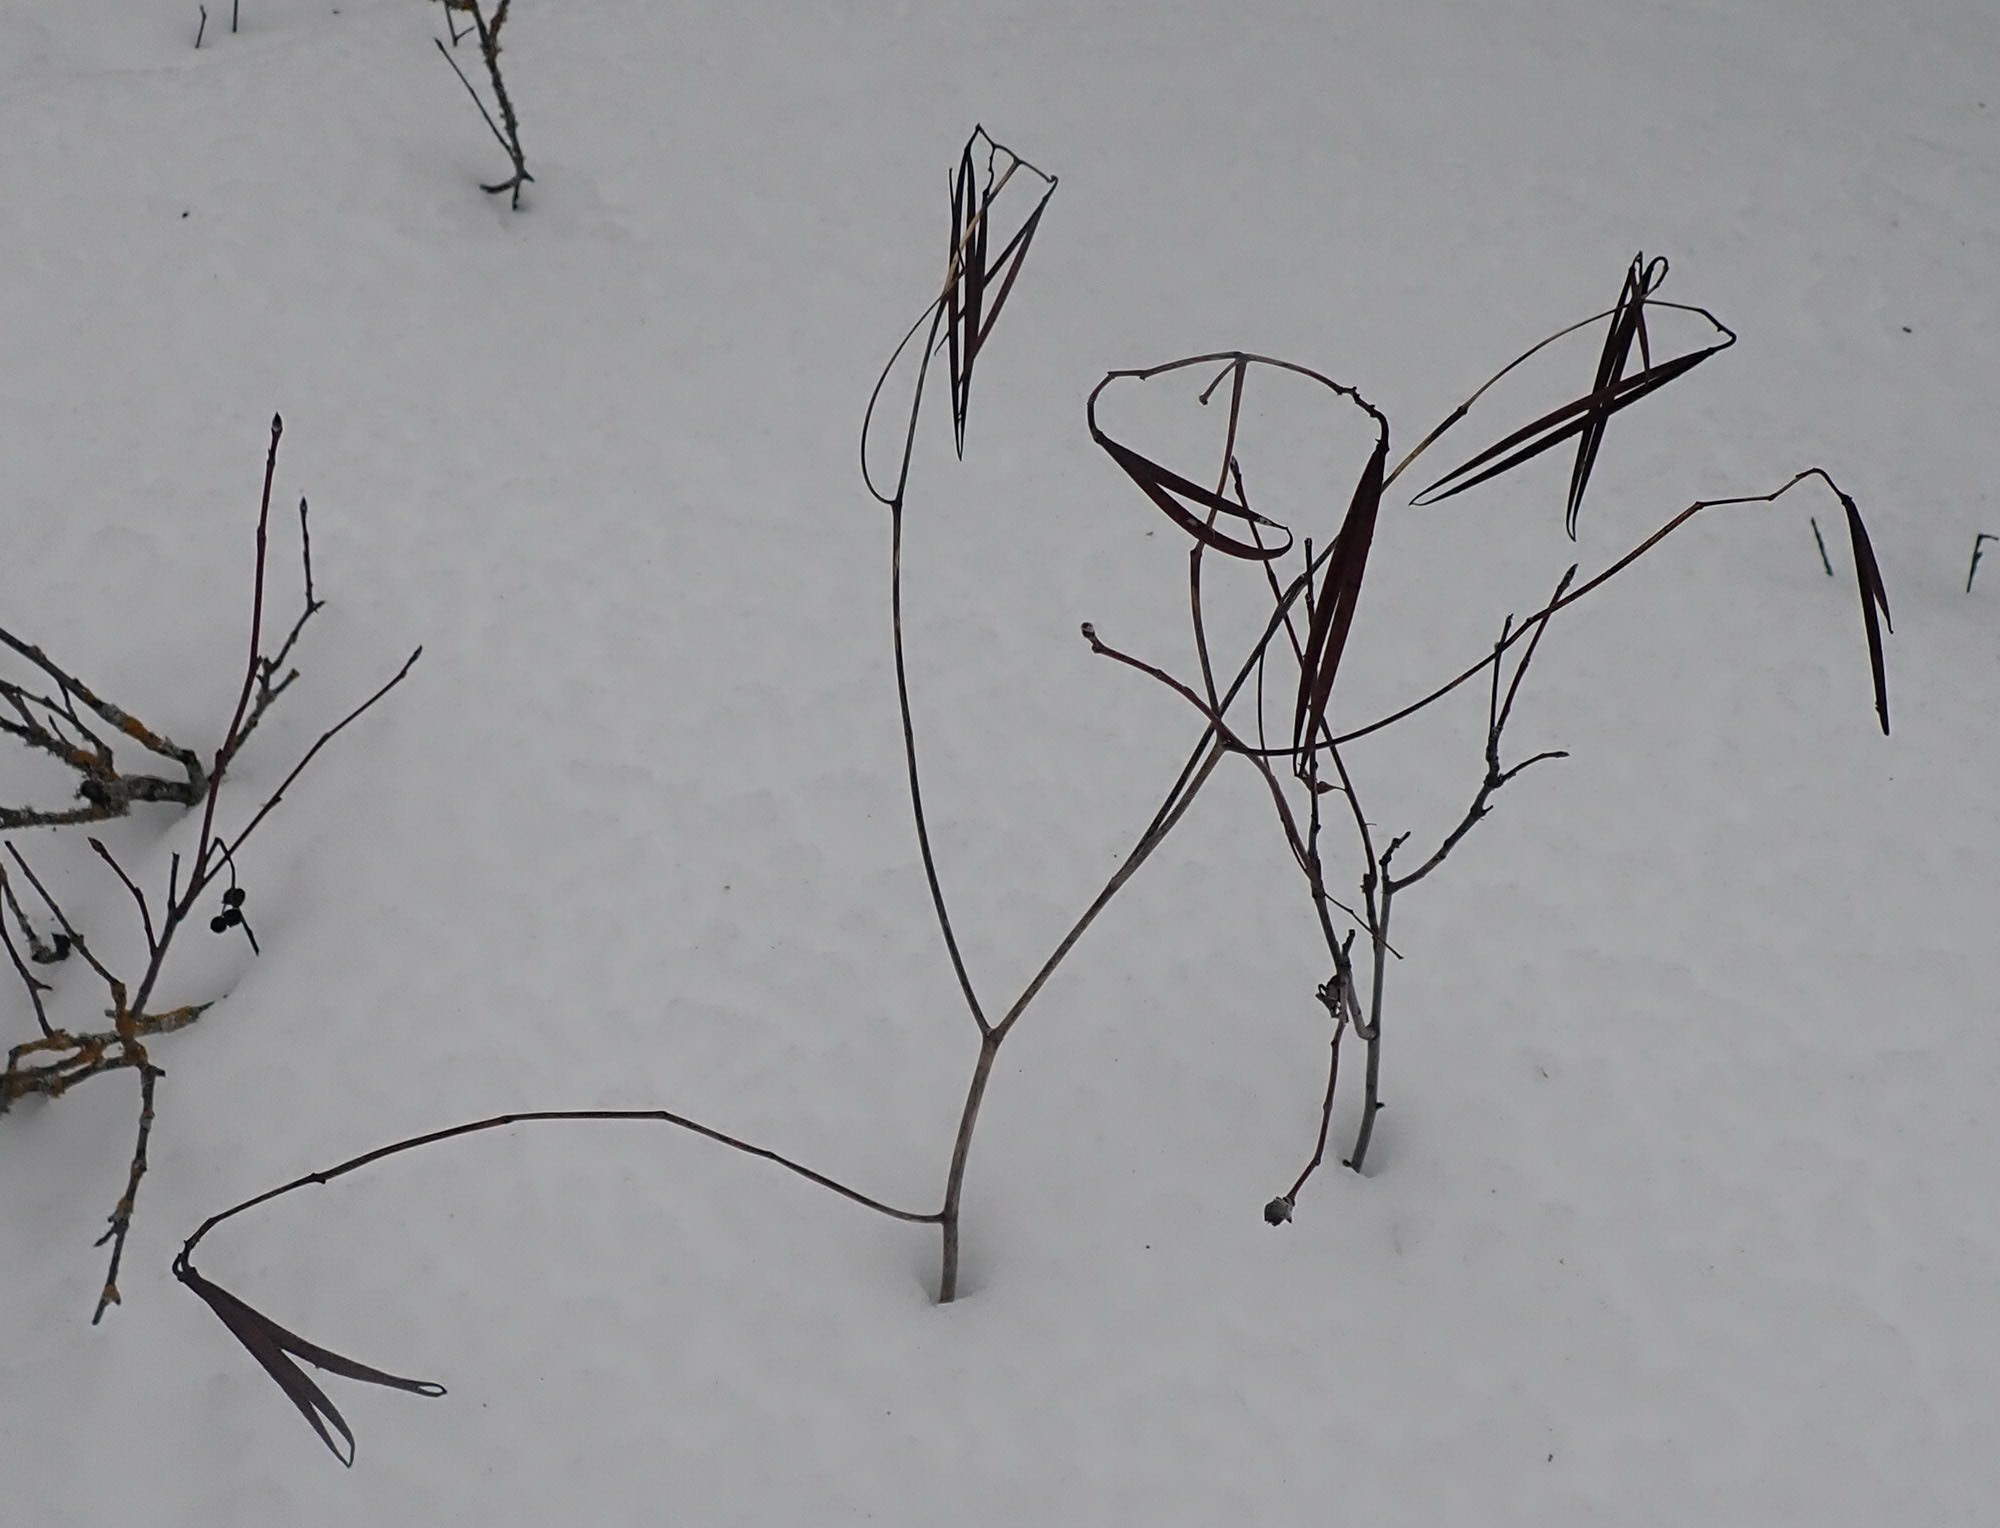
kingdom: Plantae
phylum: Tracheophyta
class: Magnoliopsida
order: Gentianales
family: Apocynaceae
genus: Apocynum
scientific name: Apocynum androsaemifolium
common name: Spreading dogbane
